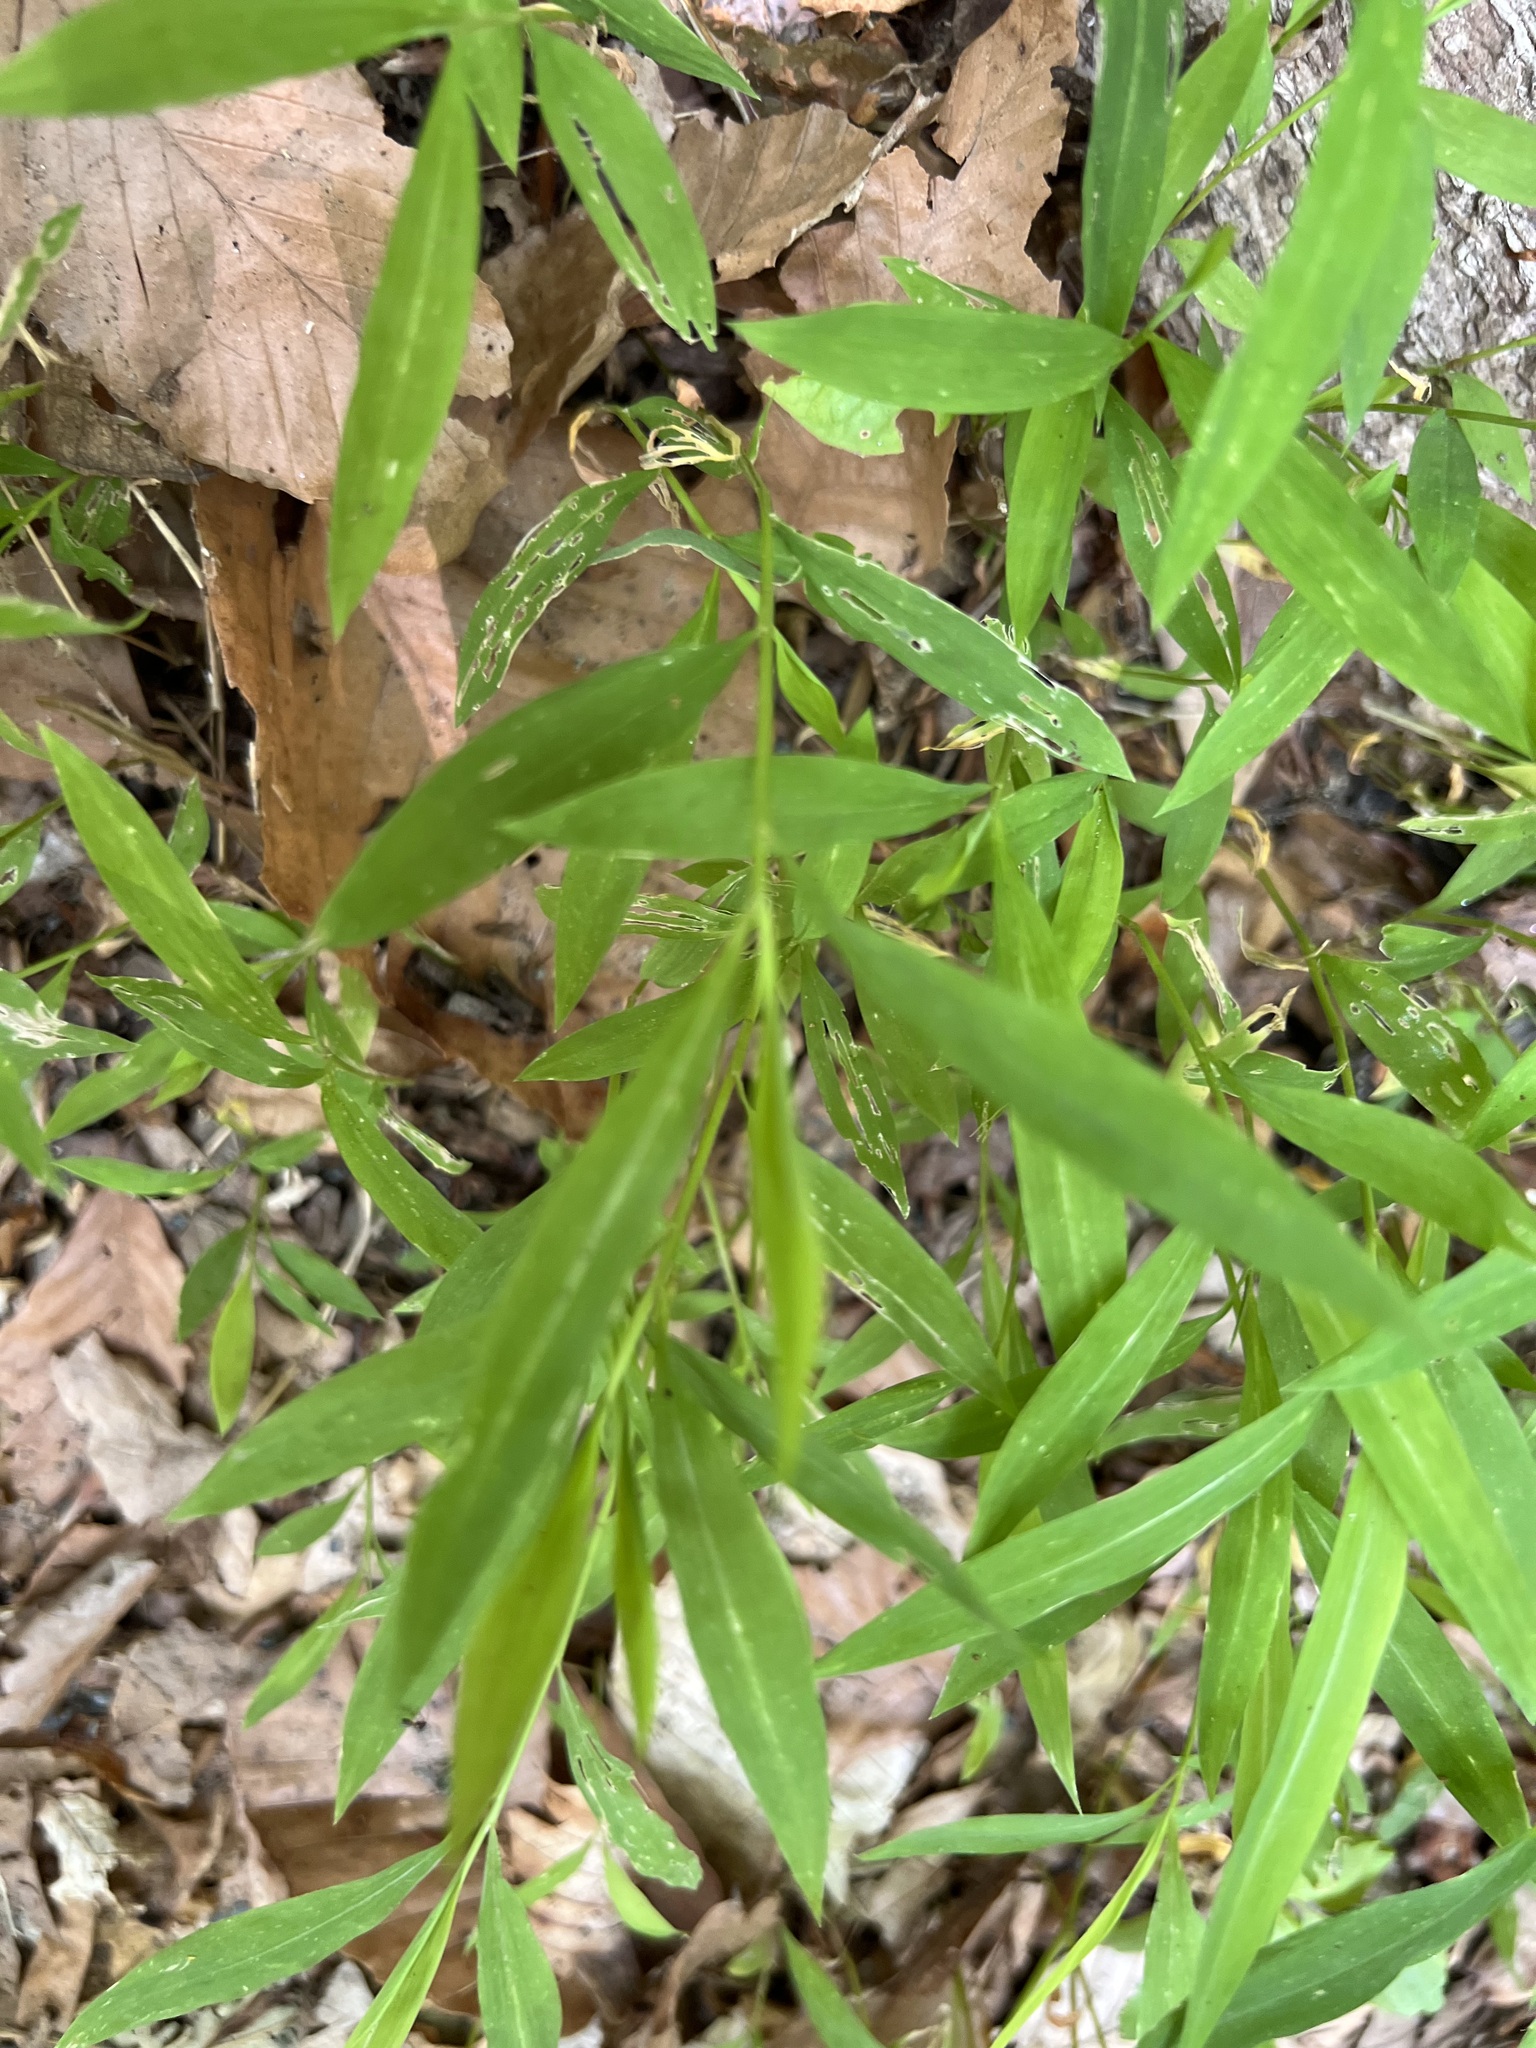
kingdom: Plantae
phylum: Tracheophyta
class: Liliopsida
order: Poales
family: Poaceae
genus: Microstegium
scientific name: Microstegium vimineum
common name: Japanese stiltgrass
